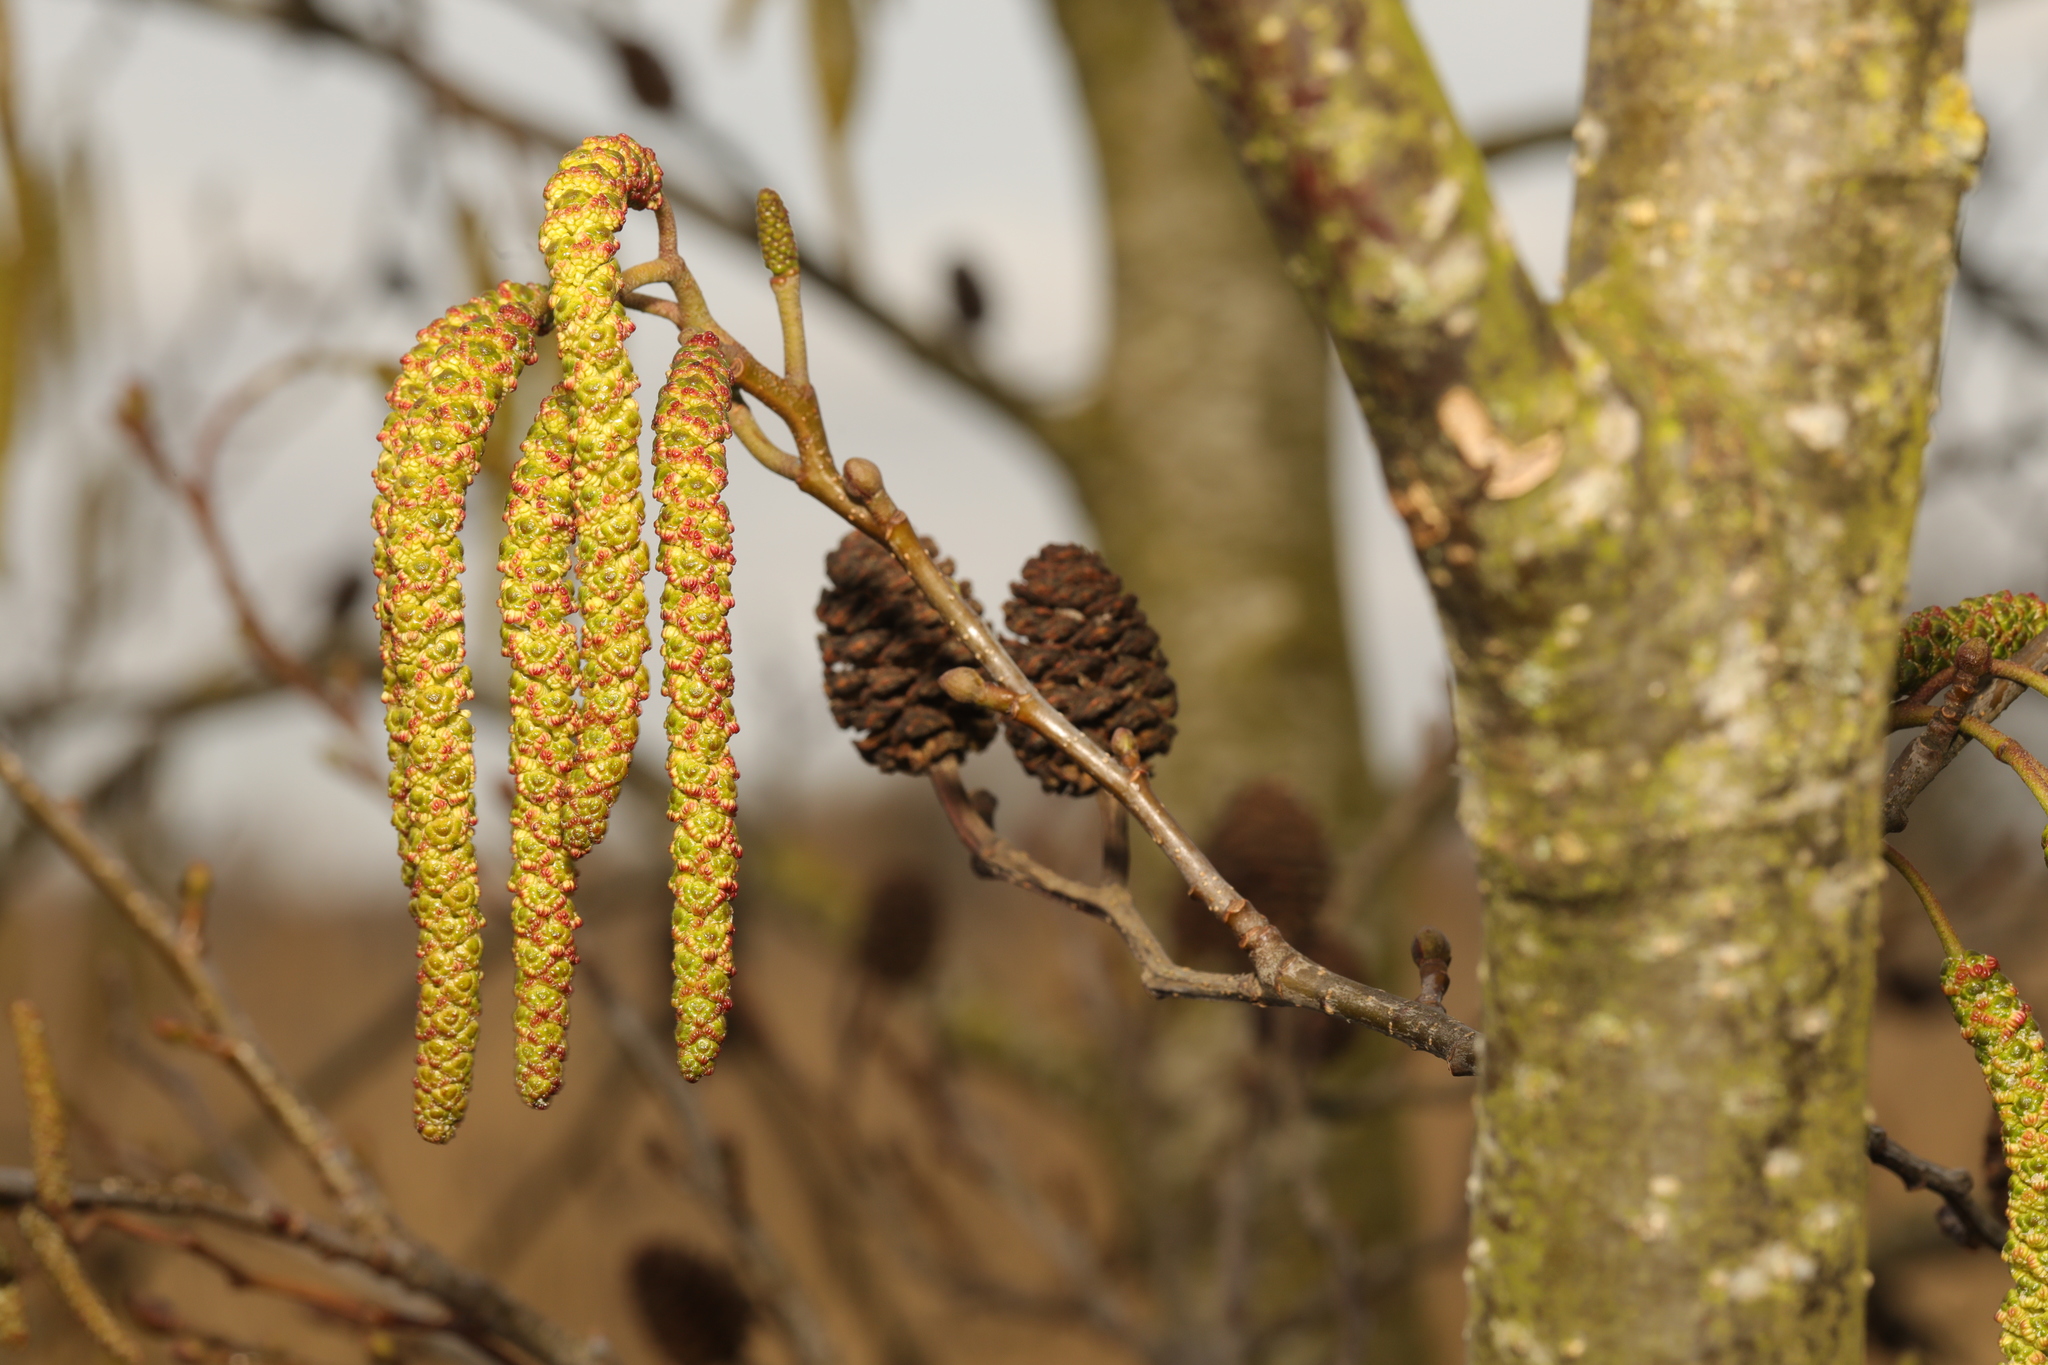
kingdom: Plantae
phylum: Tracheophyta
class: Magnoliopsida
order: Fagales
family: Betulaceae
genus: Alnus
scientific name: Alnus glutinosa
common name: Black alder
